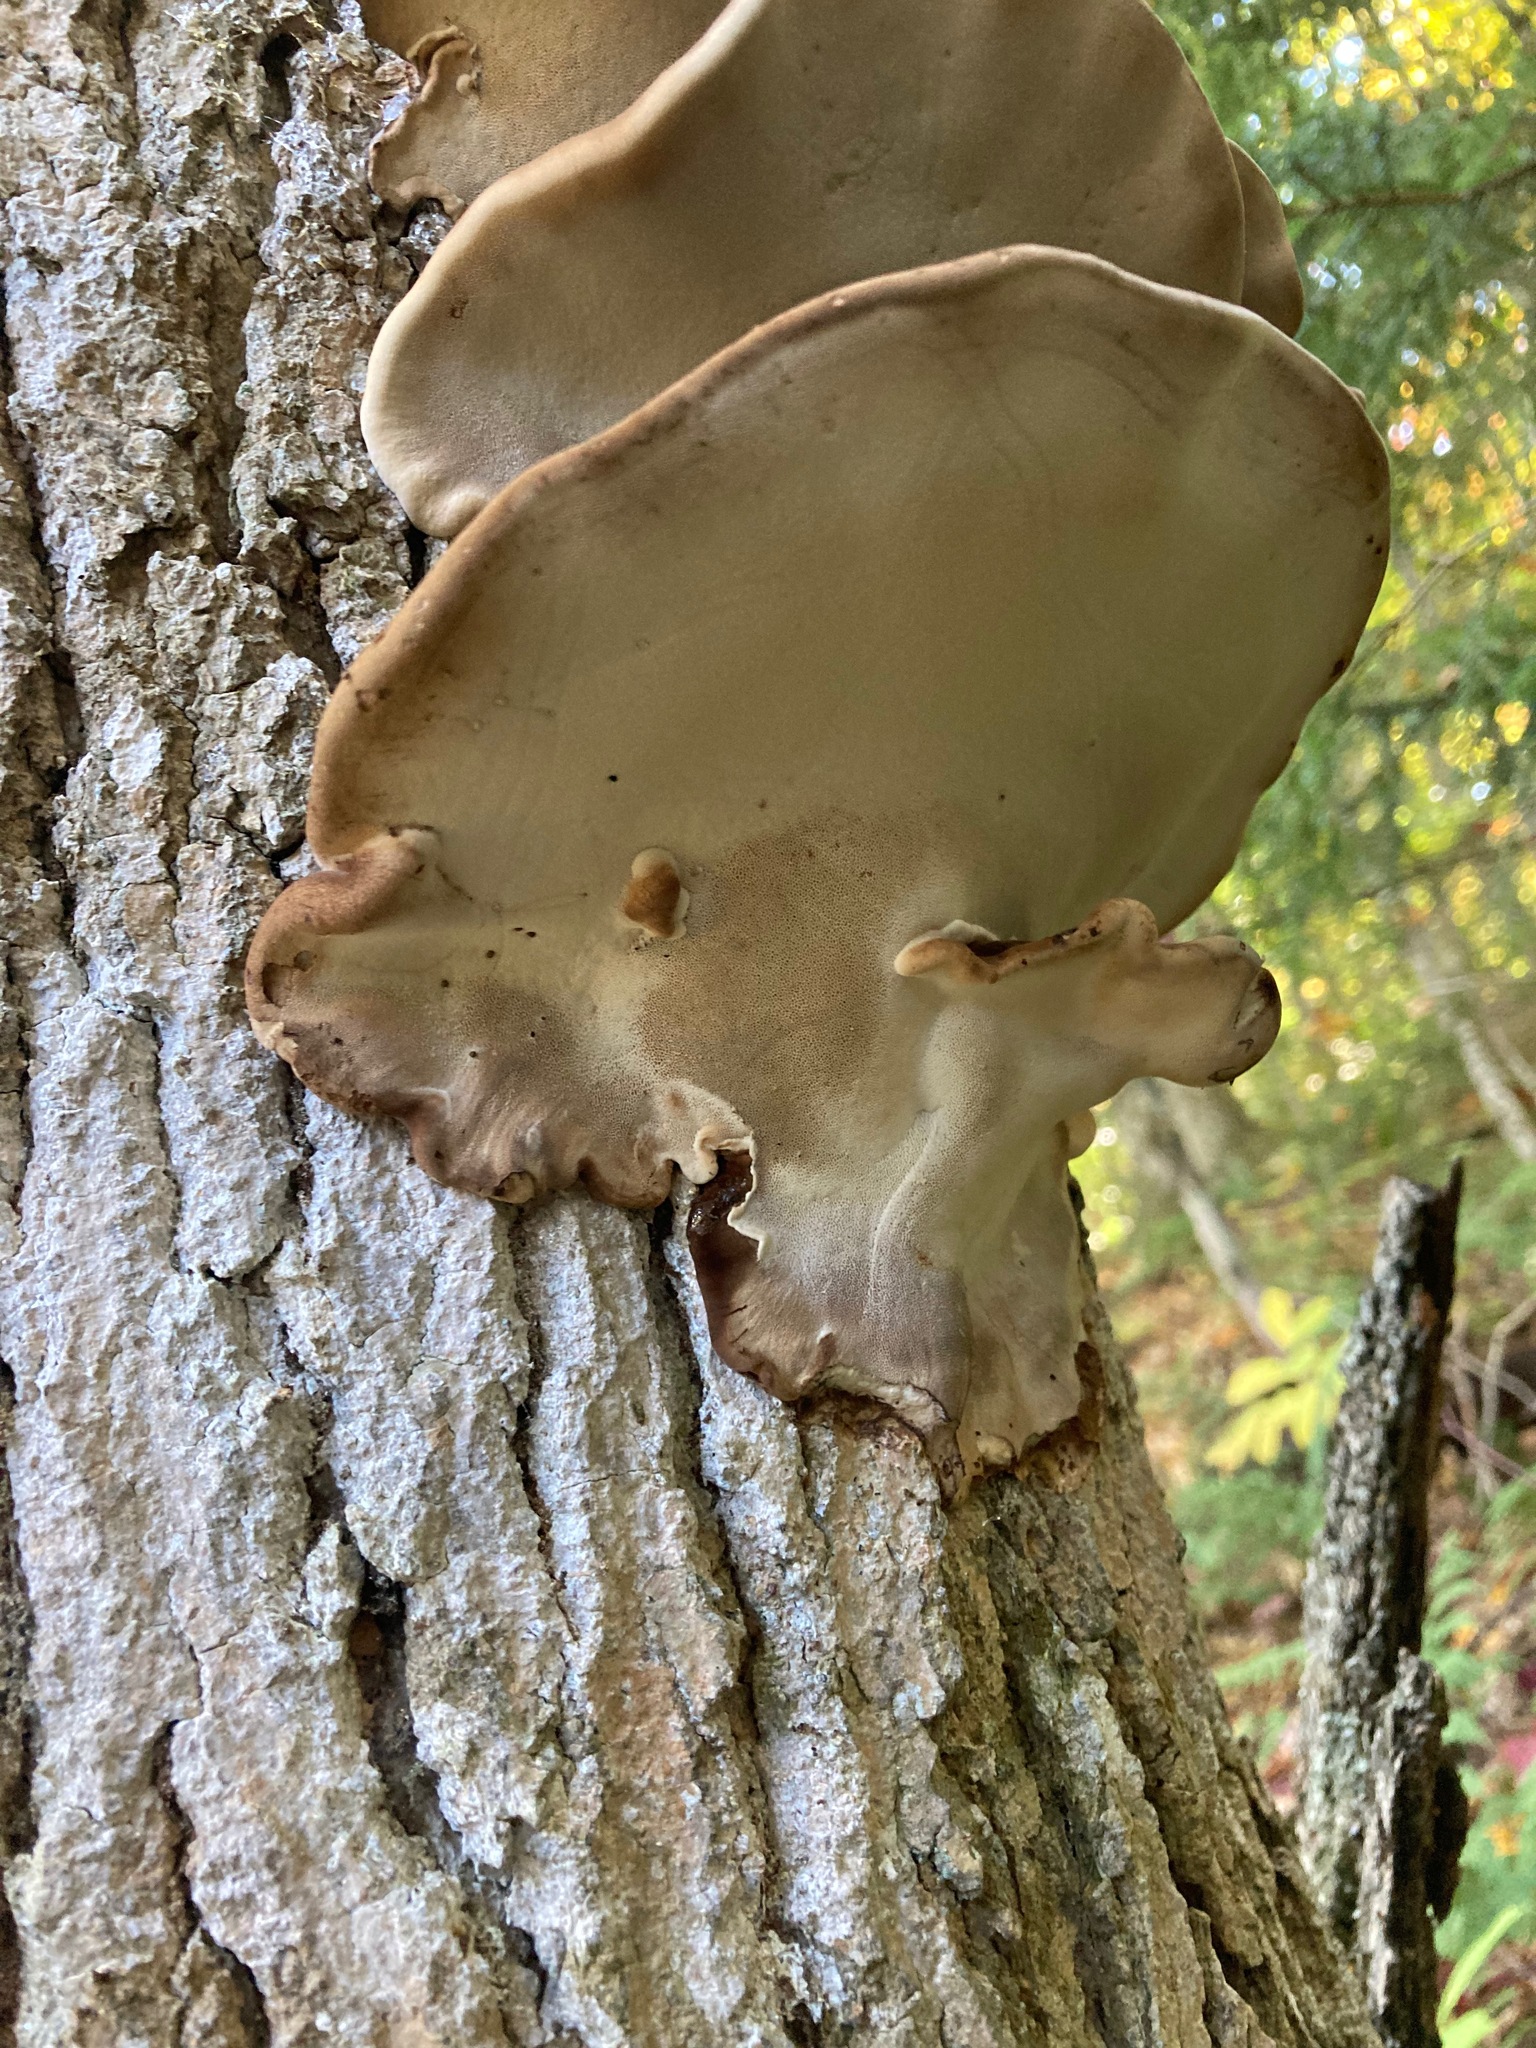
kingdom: Fungi
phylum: Basidiomycota
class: Agaricomycetes
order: Polyporales
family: Ischnodermataceae
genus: Ischnoderma
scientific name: Ischnoderma resinosum
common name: Resinous polypore
